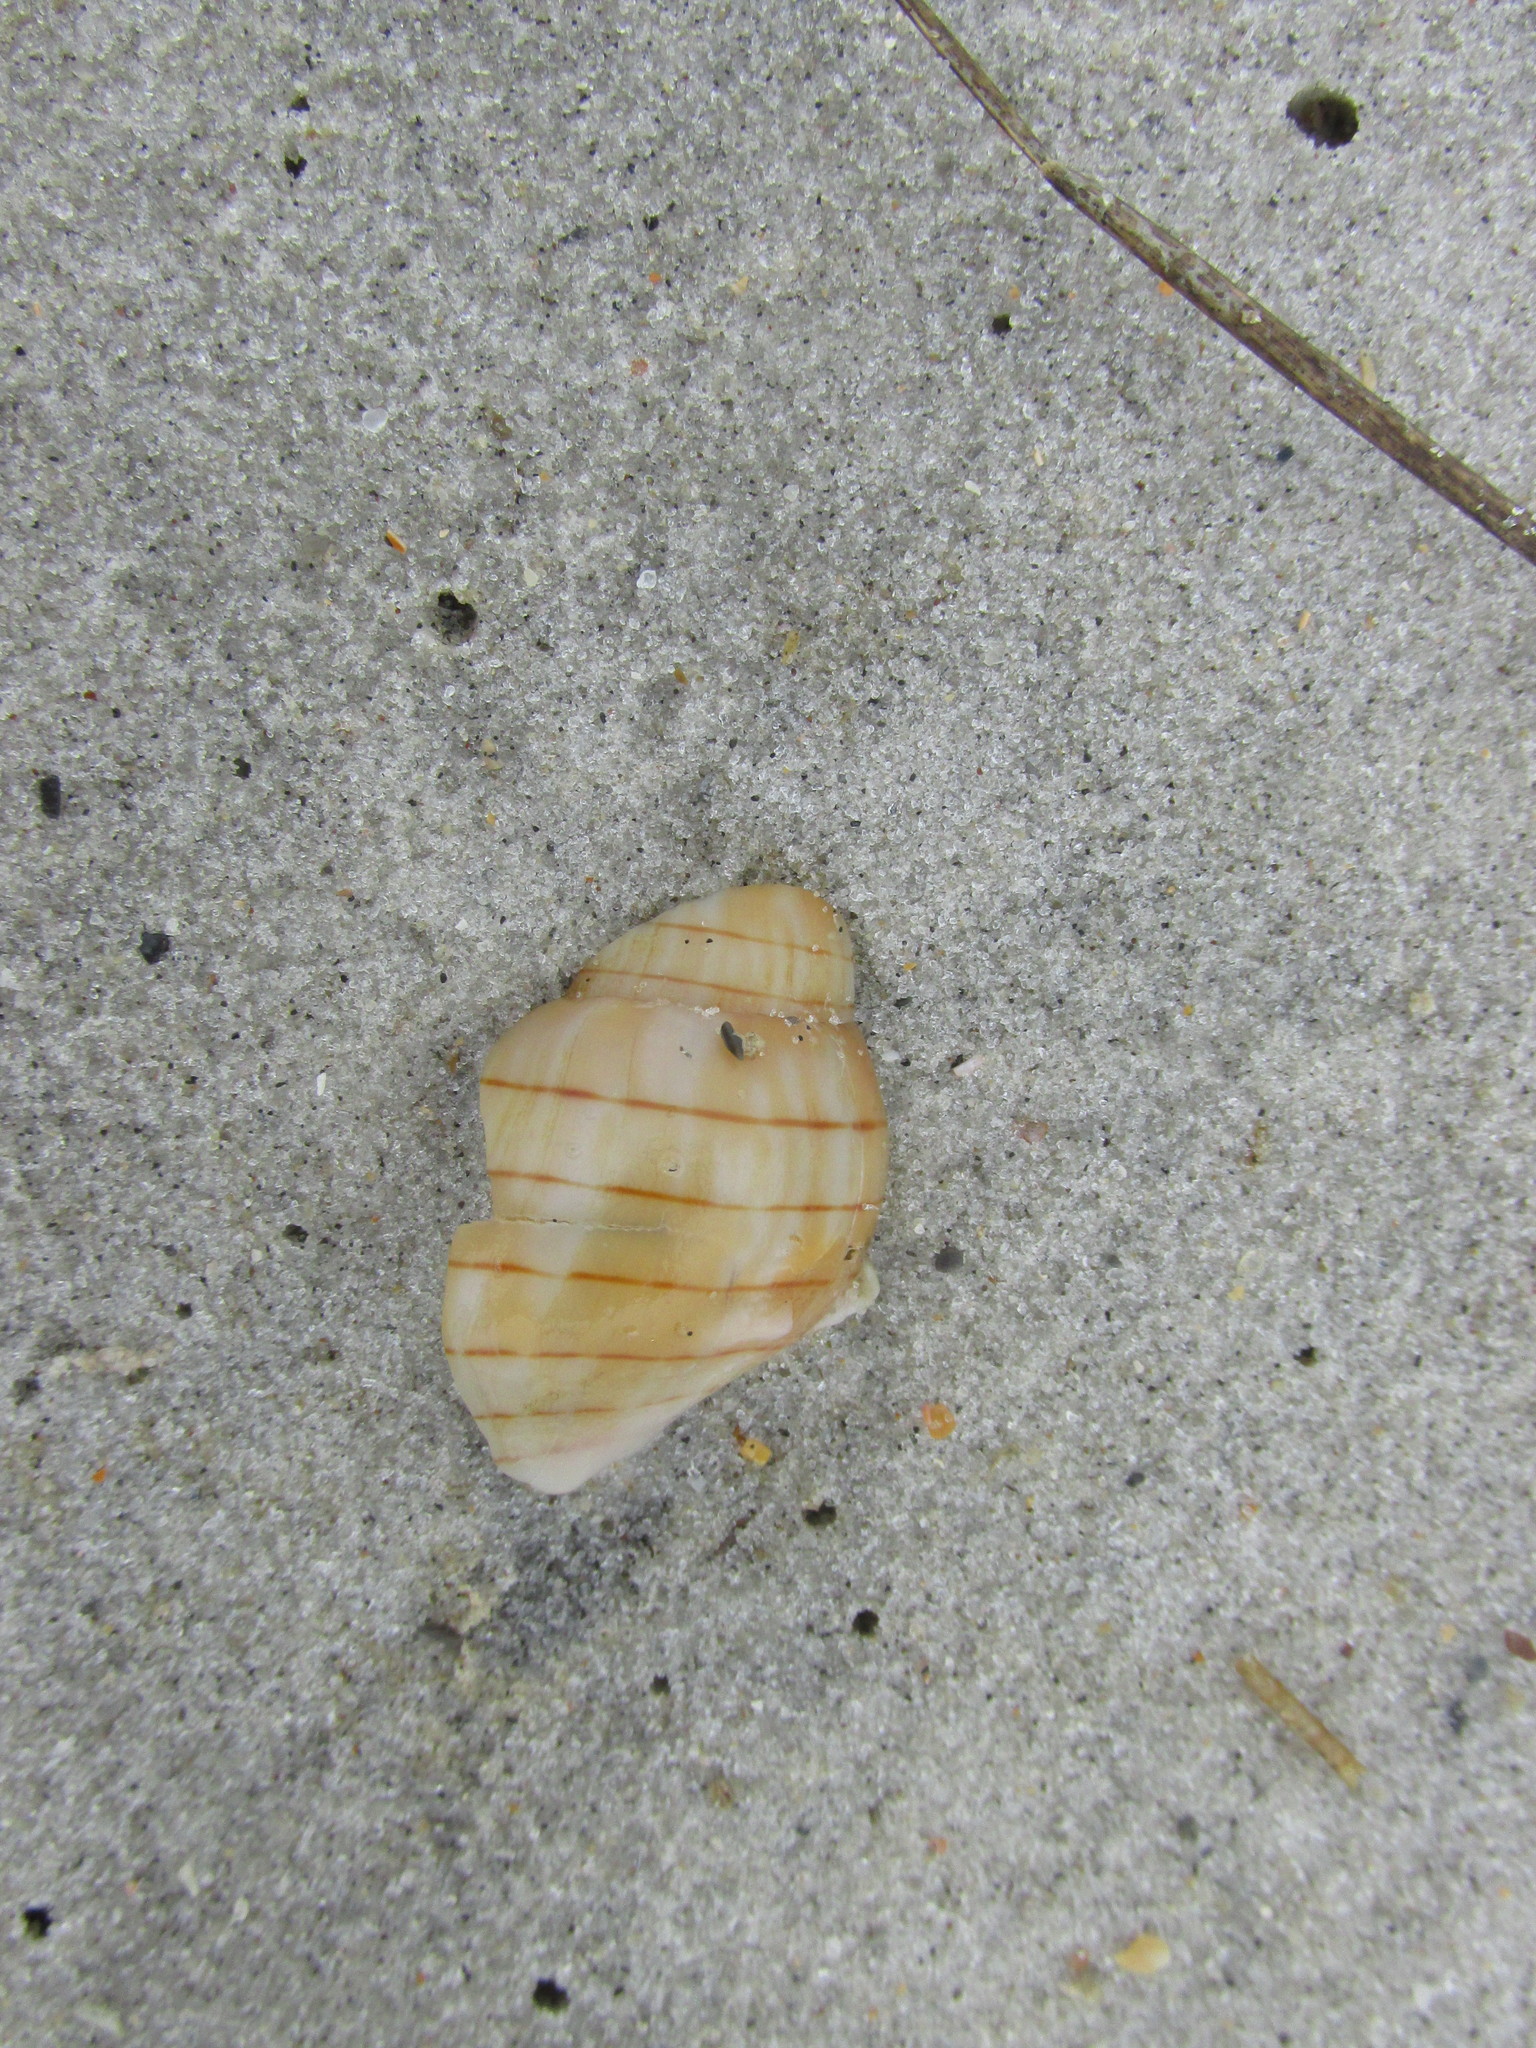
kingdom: Animalia
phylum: Mollusca
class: Gastropoda
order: Neogastropoda
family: Fasciolariidae
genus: Cinctura
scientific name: Cinctura hunteria
